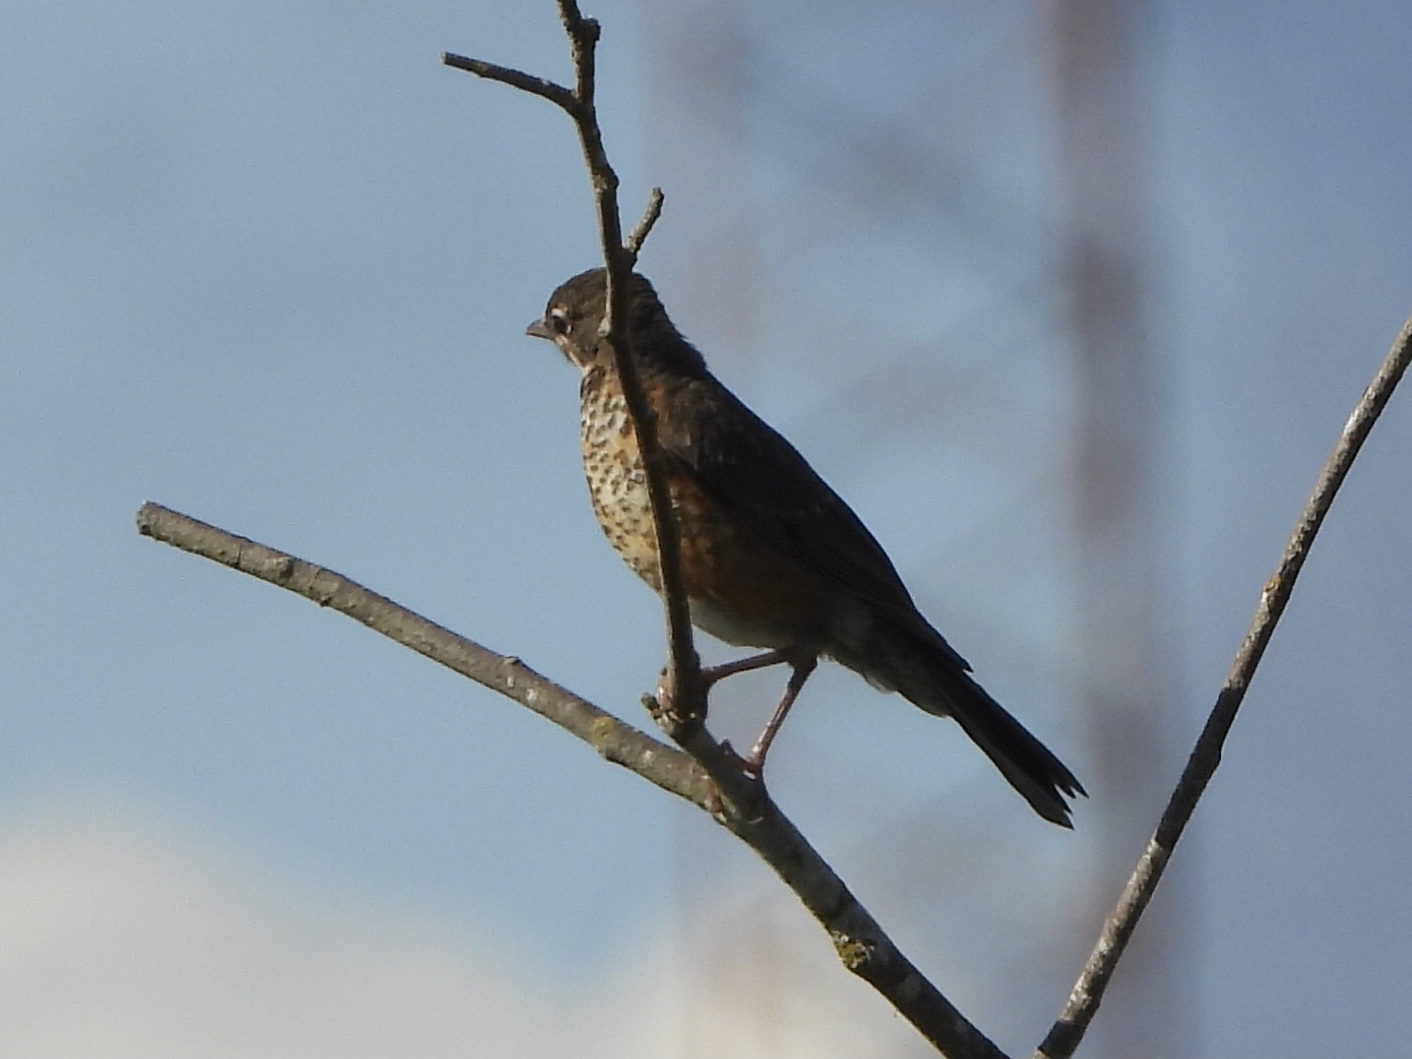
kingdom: Animalia
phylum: Chordata
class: Aves
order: Passeriformes
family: Turdidae
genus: Turdus
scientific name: Turdus migratorius
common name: American robin
